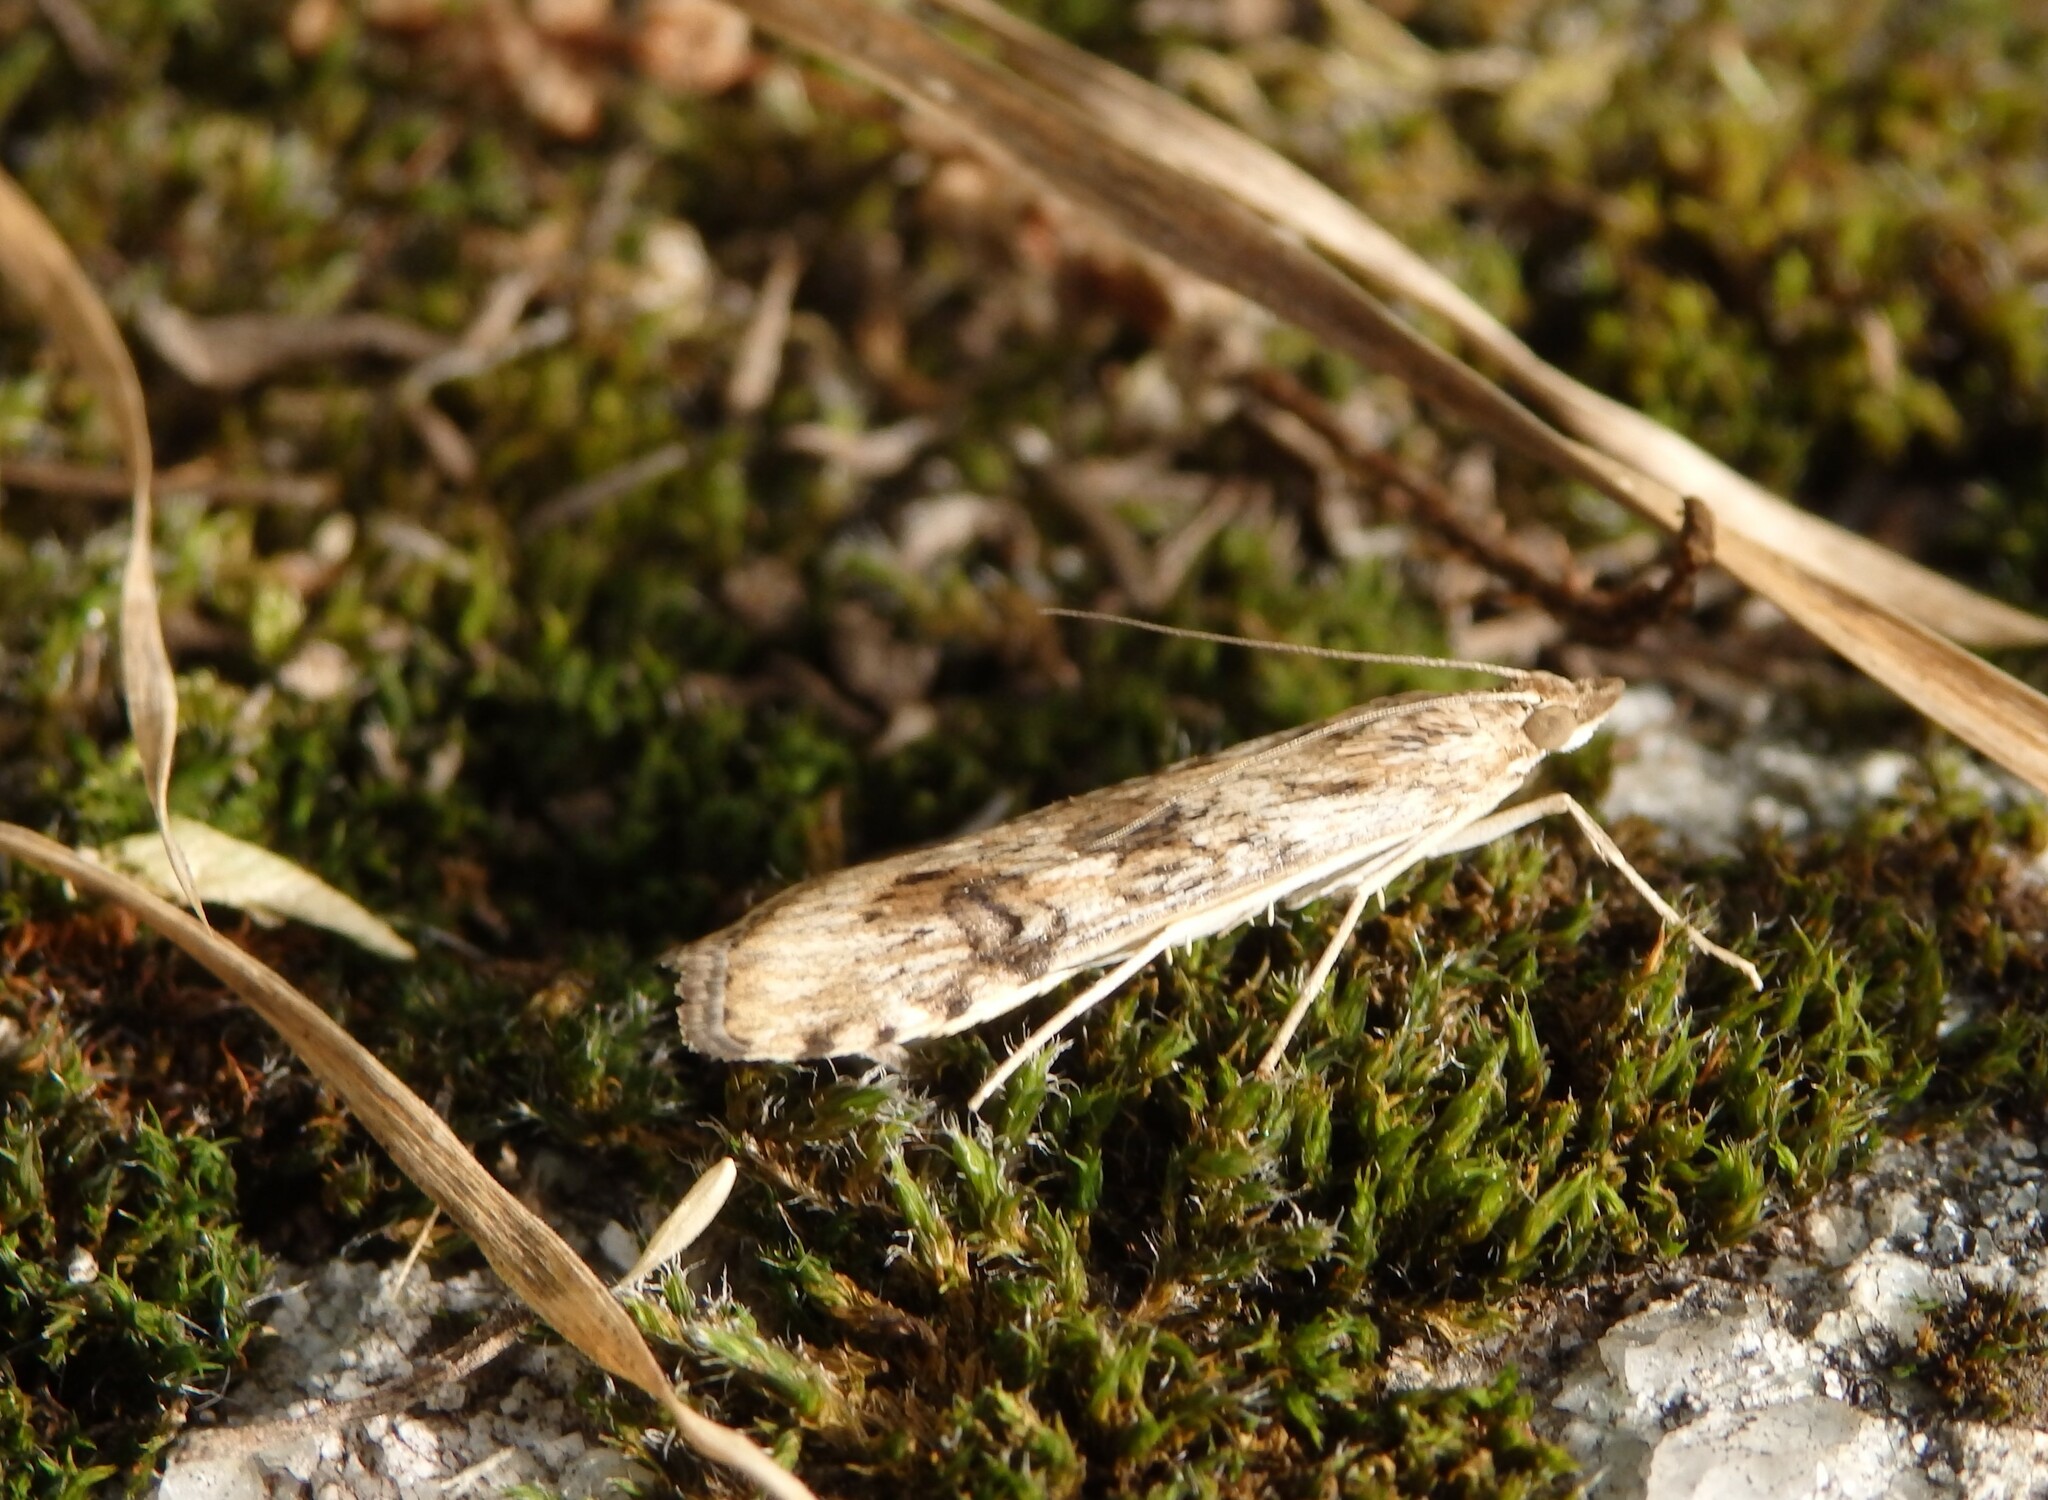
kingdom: Animalia
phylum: Arthropoda
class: Insecta
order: Lepidoptera
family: Crambidae
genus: Nomophila
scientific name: Nomophila noctuella
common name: Rush veneer
